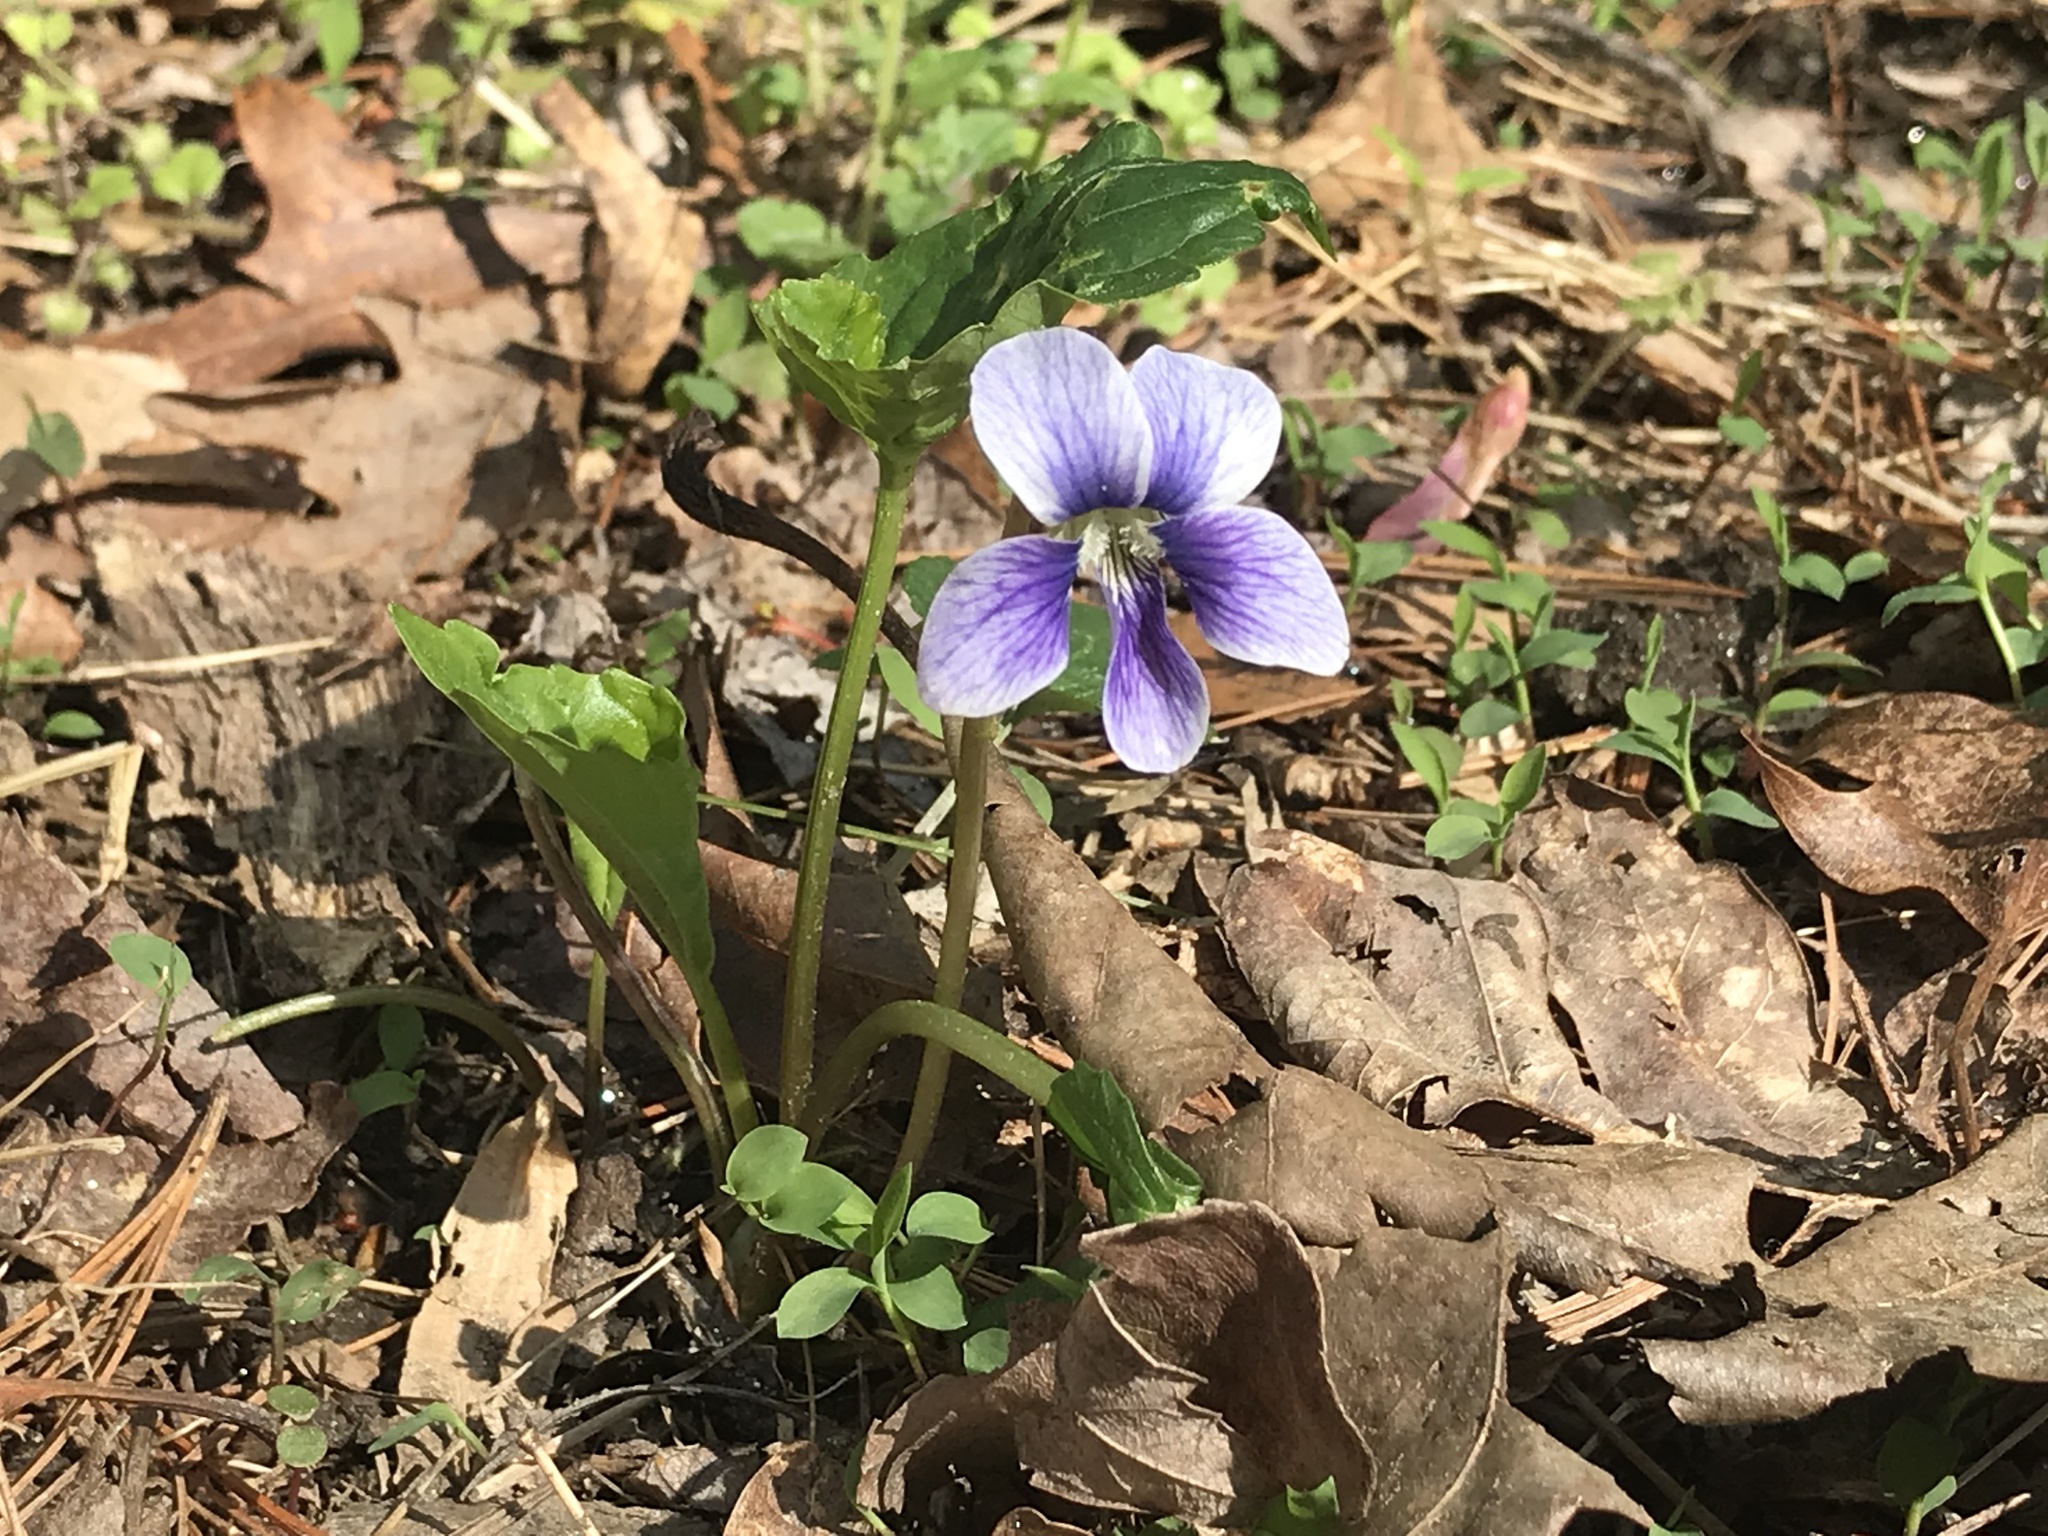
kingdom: Plantae
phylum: Tracheophyta
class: Magnoliopsida
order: Malpighiales
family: Violaceae
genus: Viola
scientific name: Viola sororia
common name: Dooryard violet
